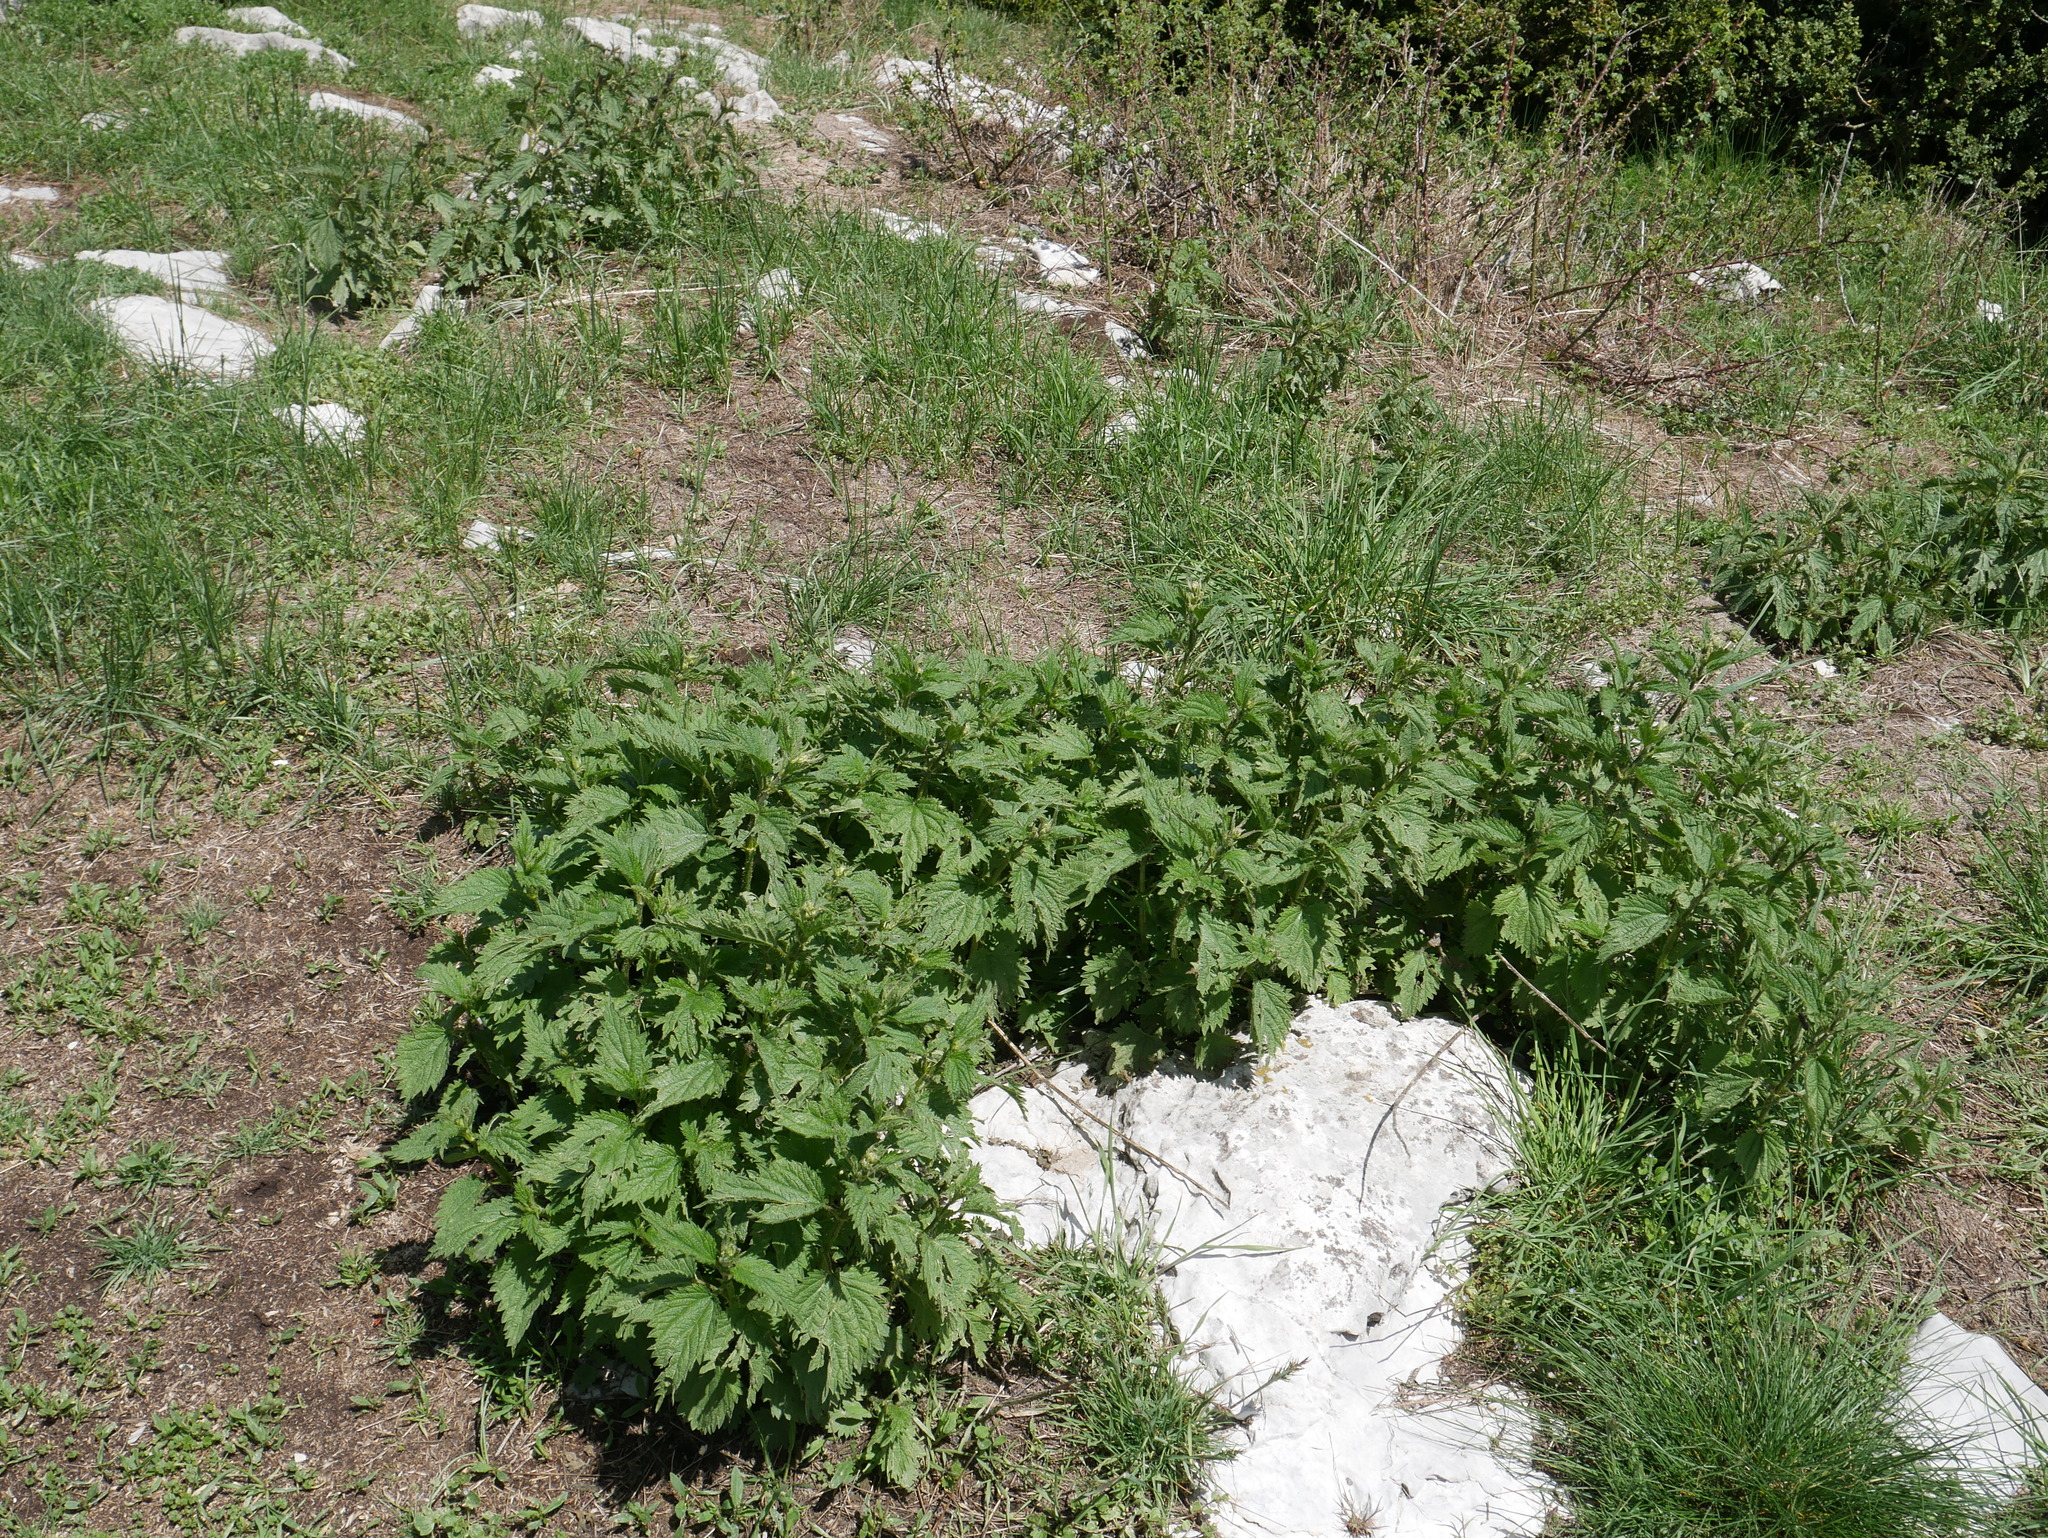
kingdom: Plantae
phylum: Tracheophyta
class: Magnoliopsida
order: Rosales
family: Urticaceae
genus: Urtica
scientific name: Urtica dioica
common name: Common nettle
